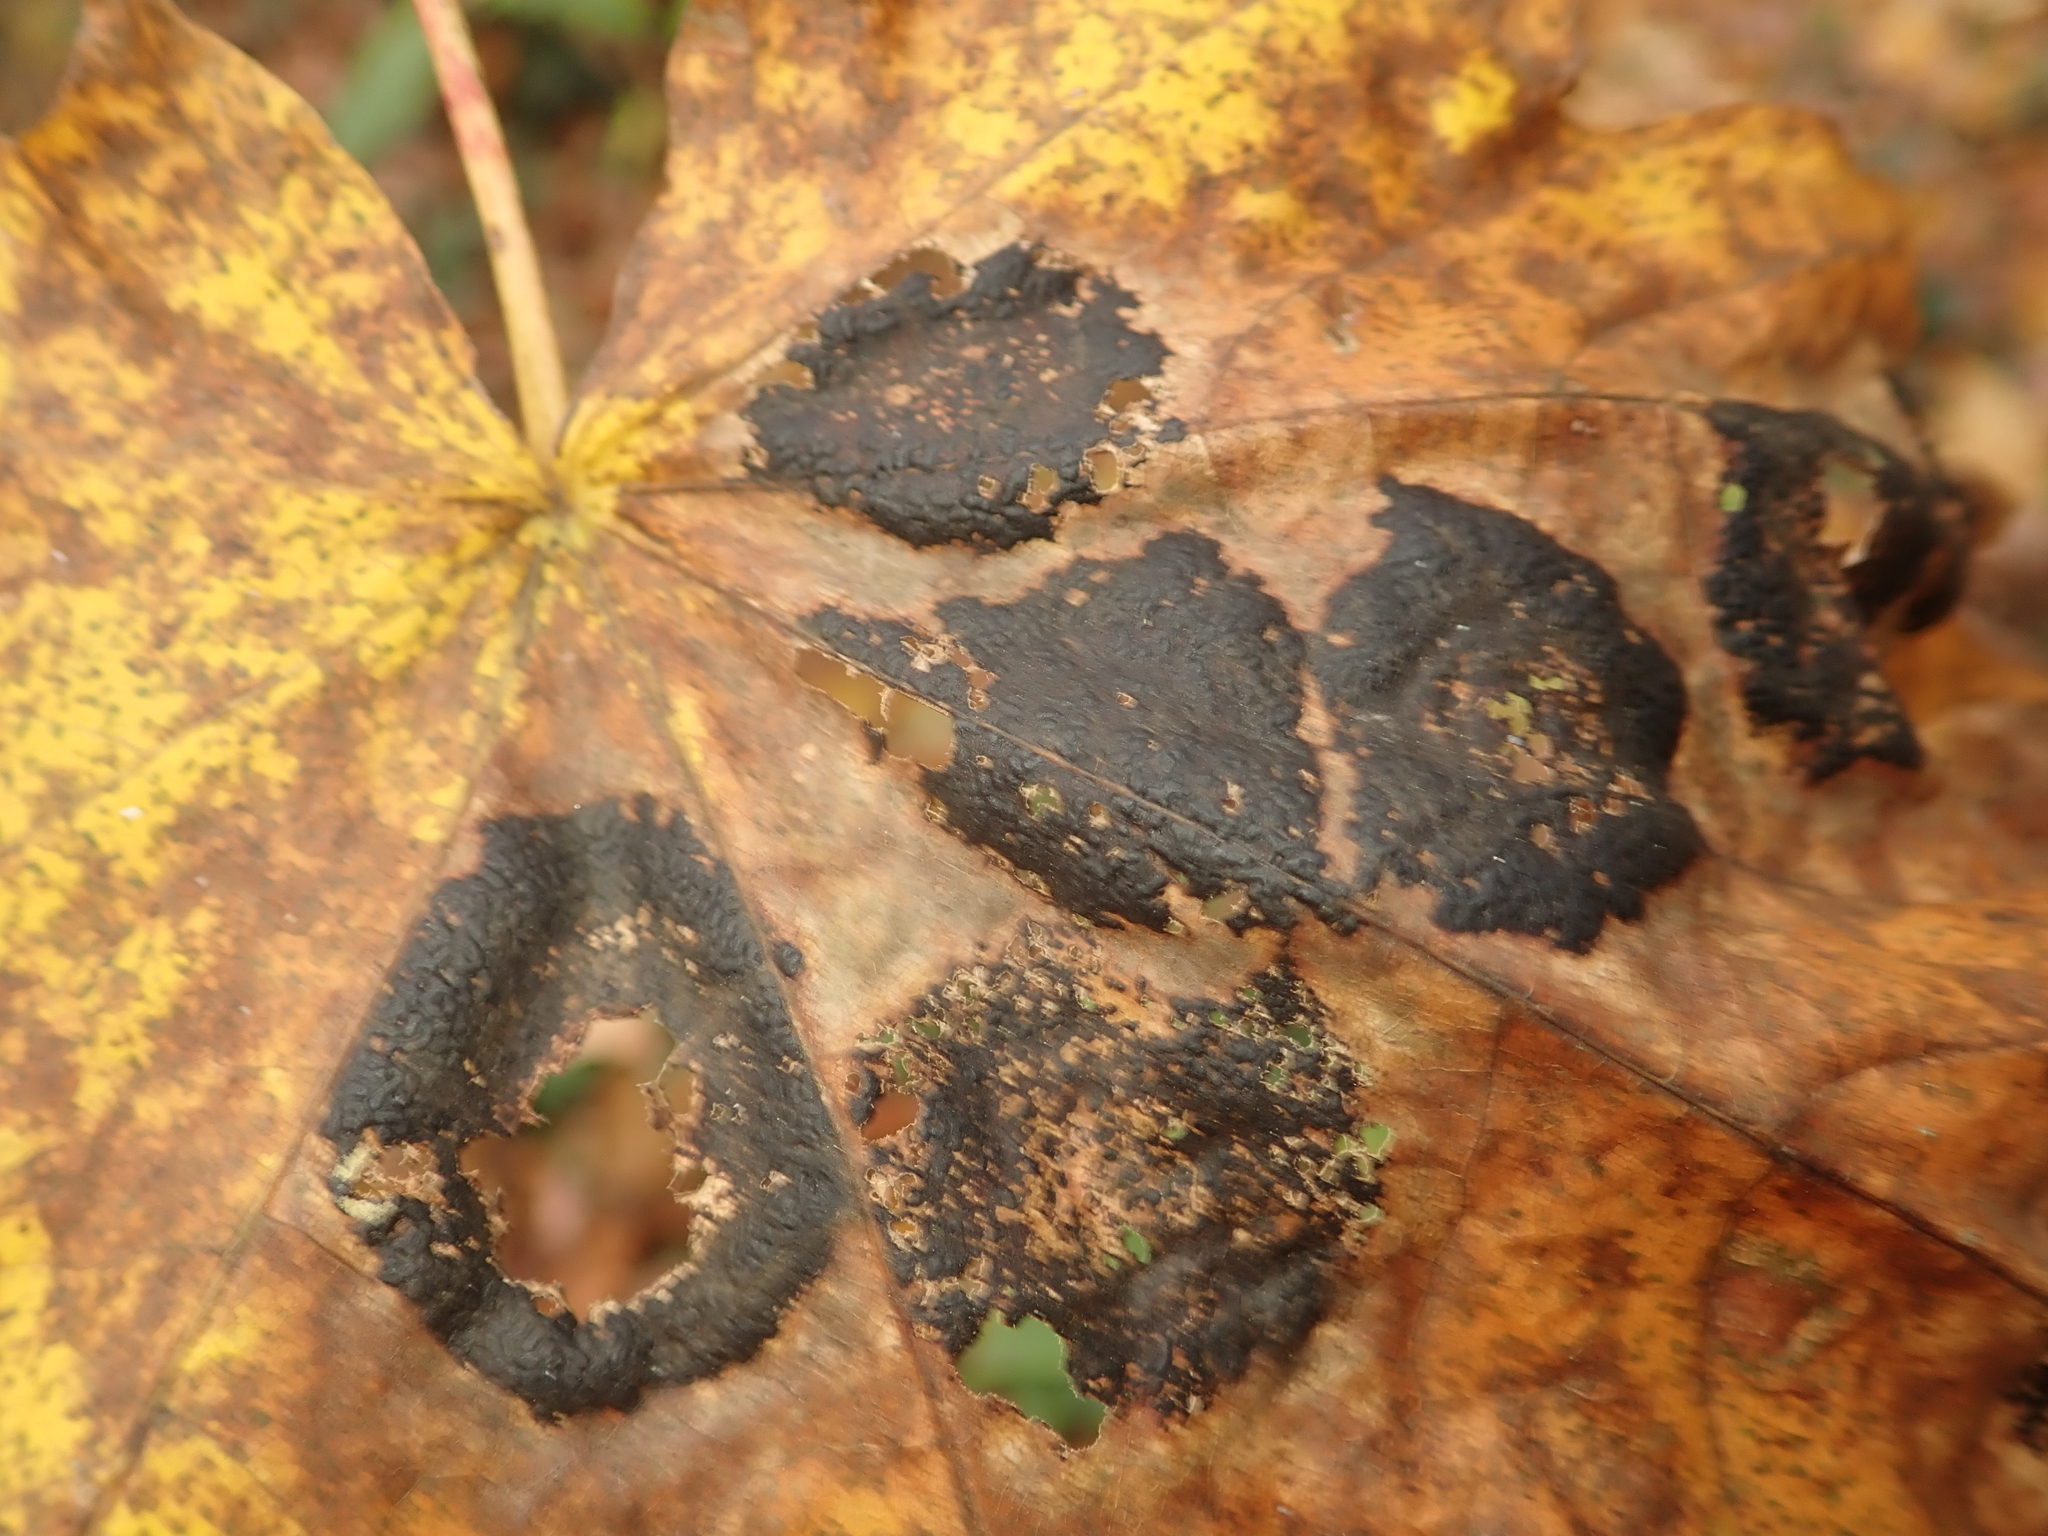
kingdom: Fungi
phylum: Ascomycota
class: Leotiomycetes
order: Rhytismatales
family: Rhytismataceae
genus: Rhytisma
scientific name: Rhytisma acerinum
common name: European tar spot
